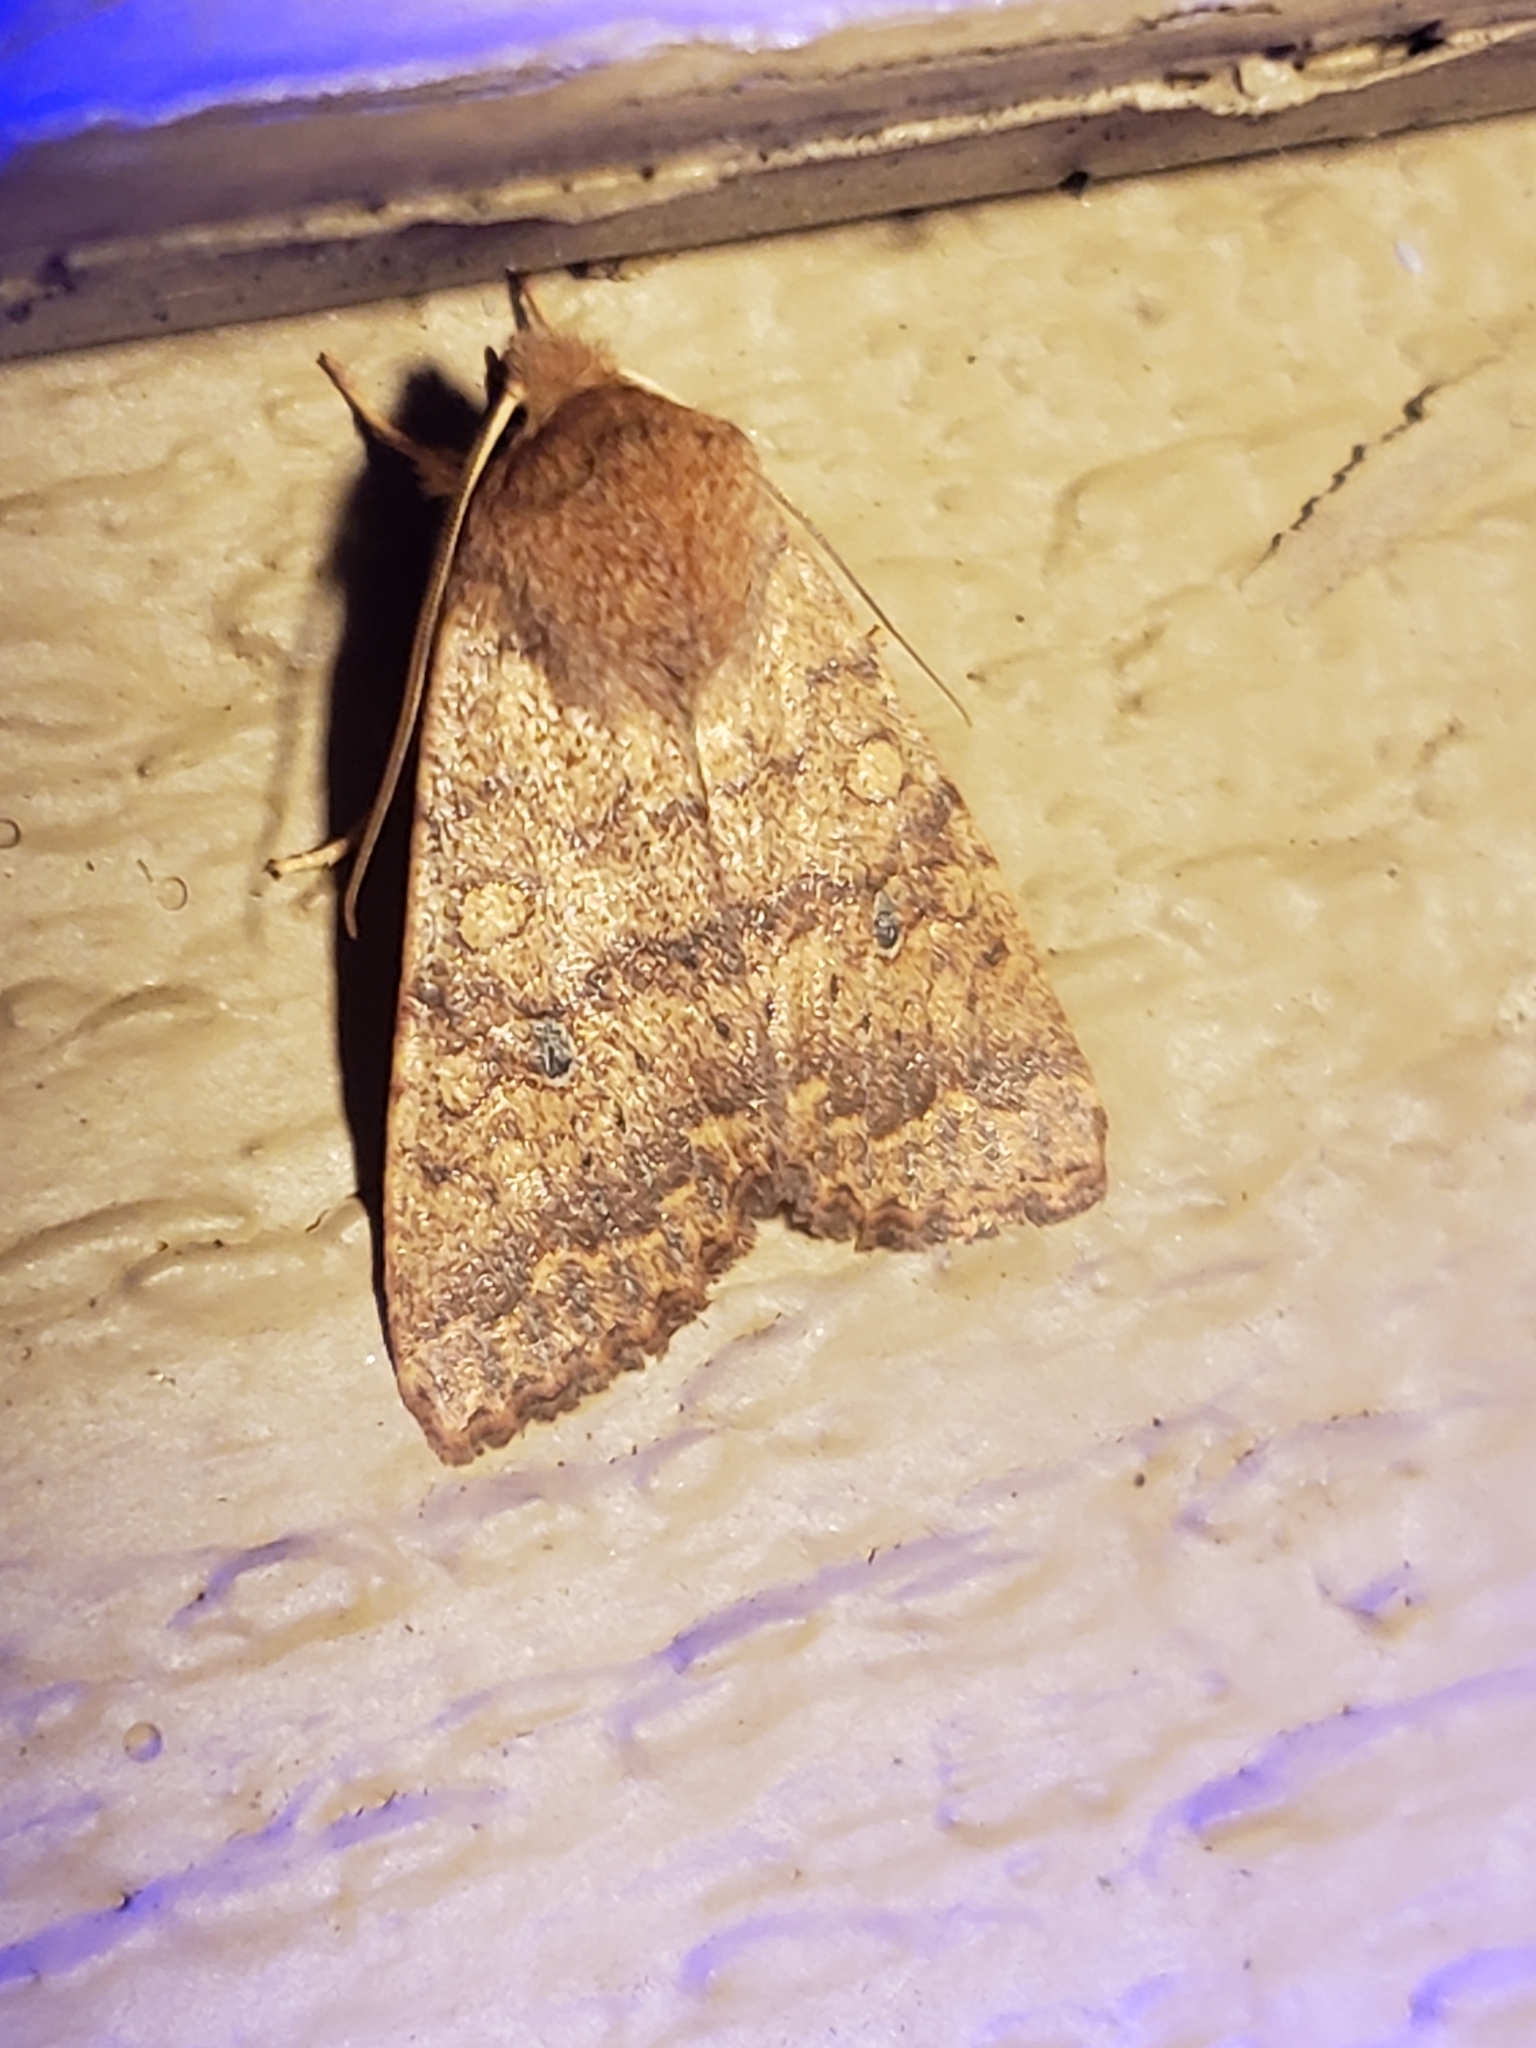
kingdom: Animalia
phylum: Arthropoda
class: Insecta
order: Lepidoptera
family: Noctuidae
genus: Agrochola
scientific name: Agrochola bicolorago
